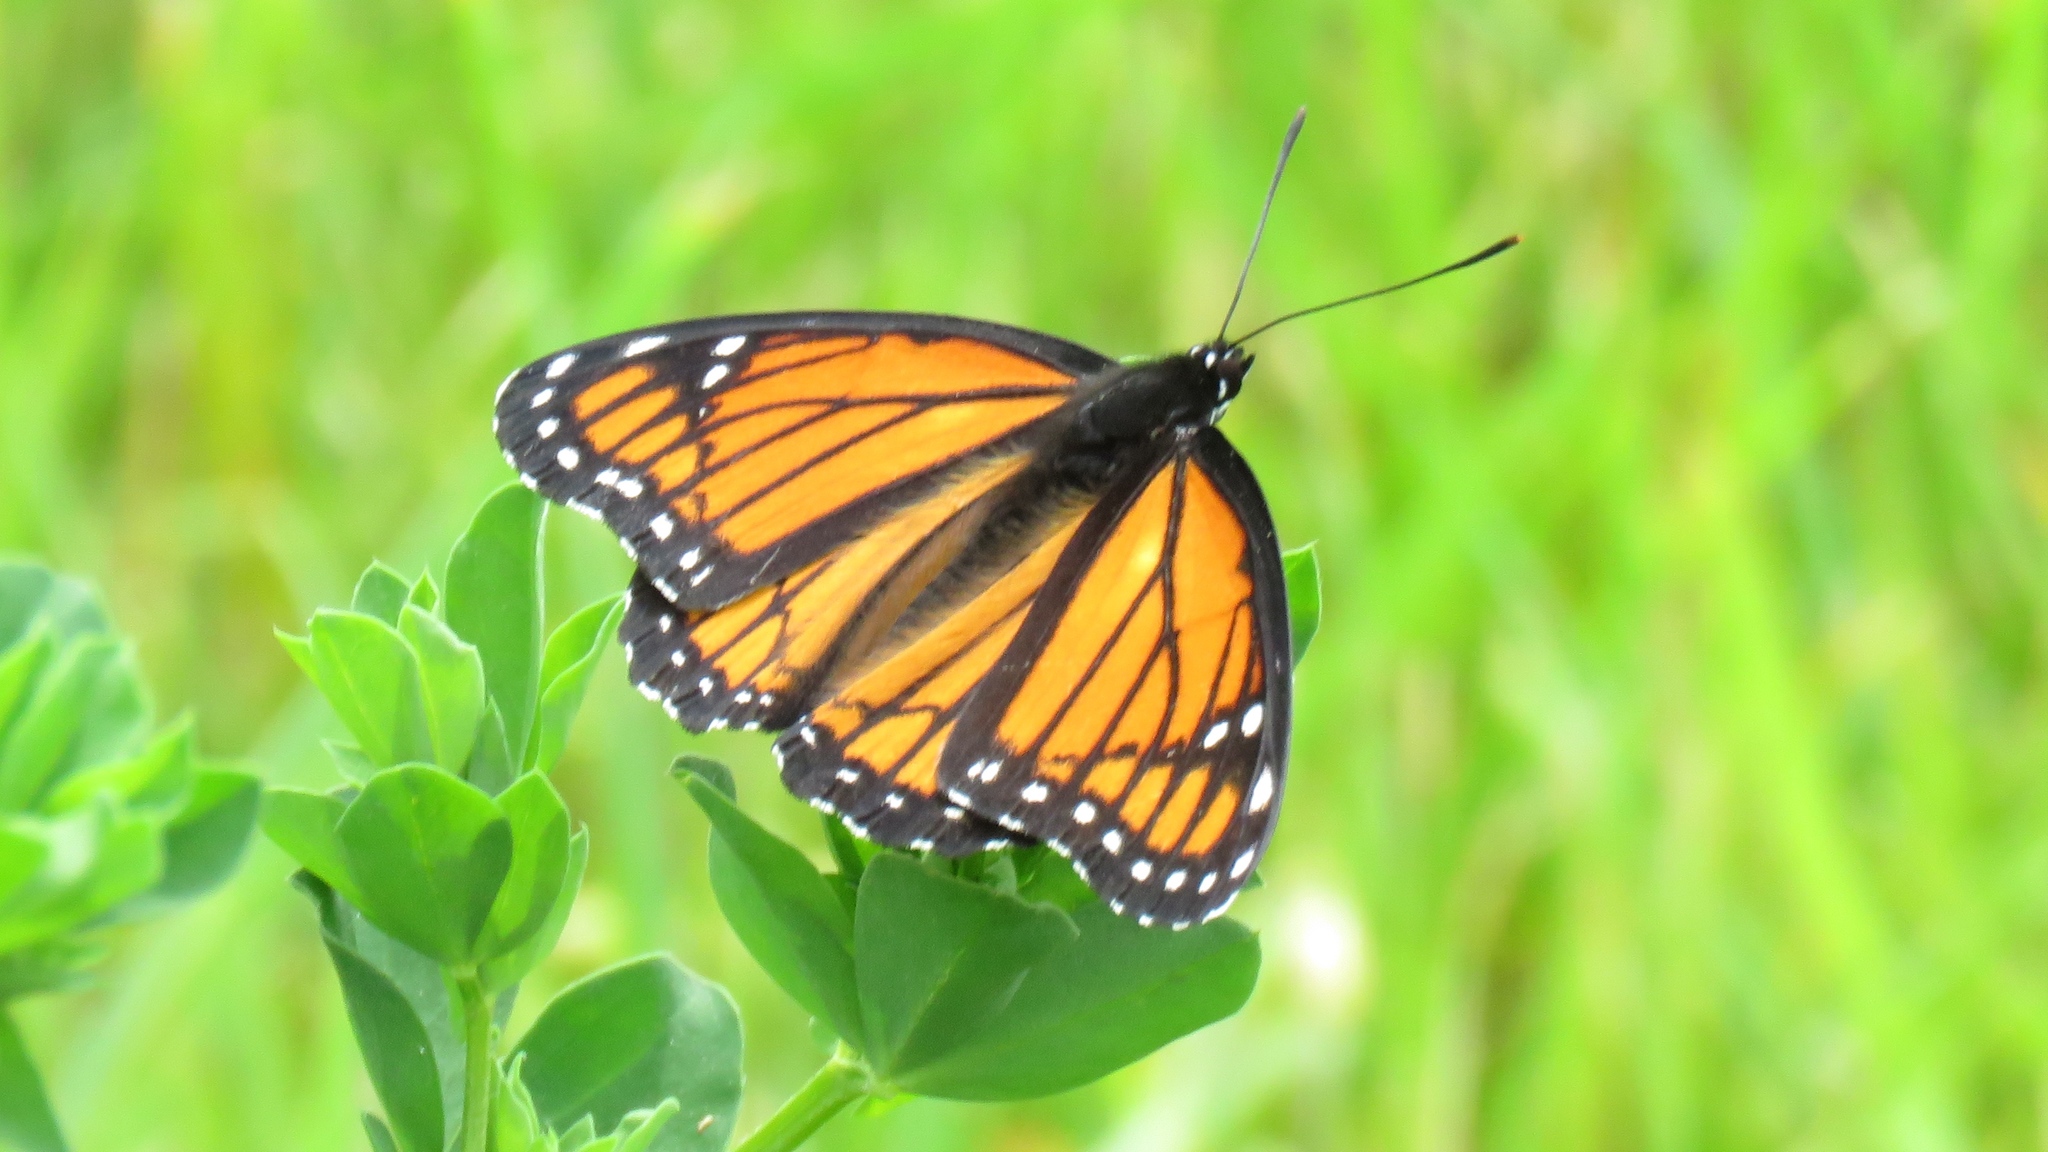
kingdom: Animalia
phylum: Arthropoda
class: Insecta
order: Lepidoptera
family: Nymphalidae
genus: Limenitis
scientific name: Limenitis archippus
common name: Viceroy
